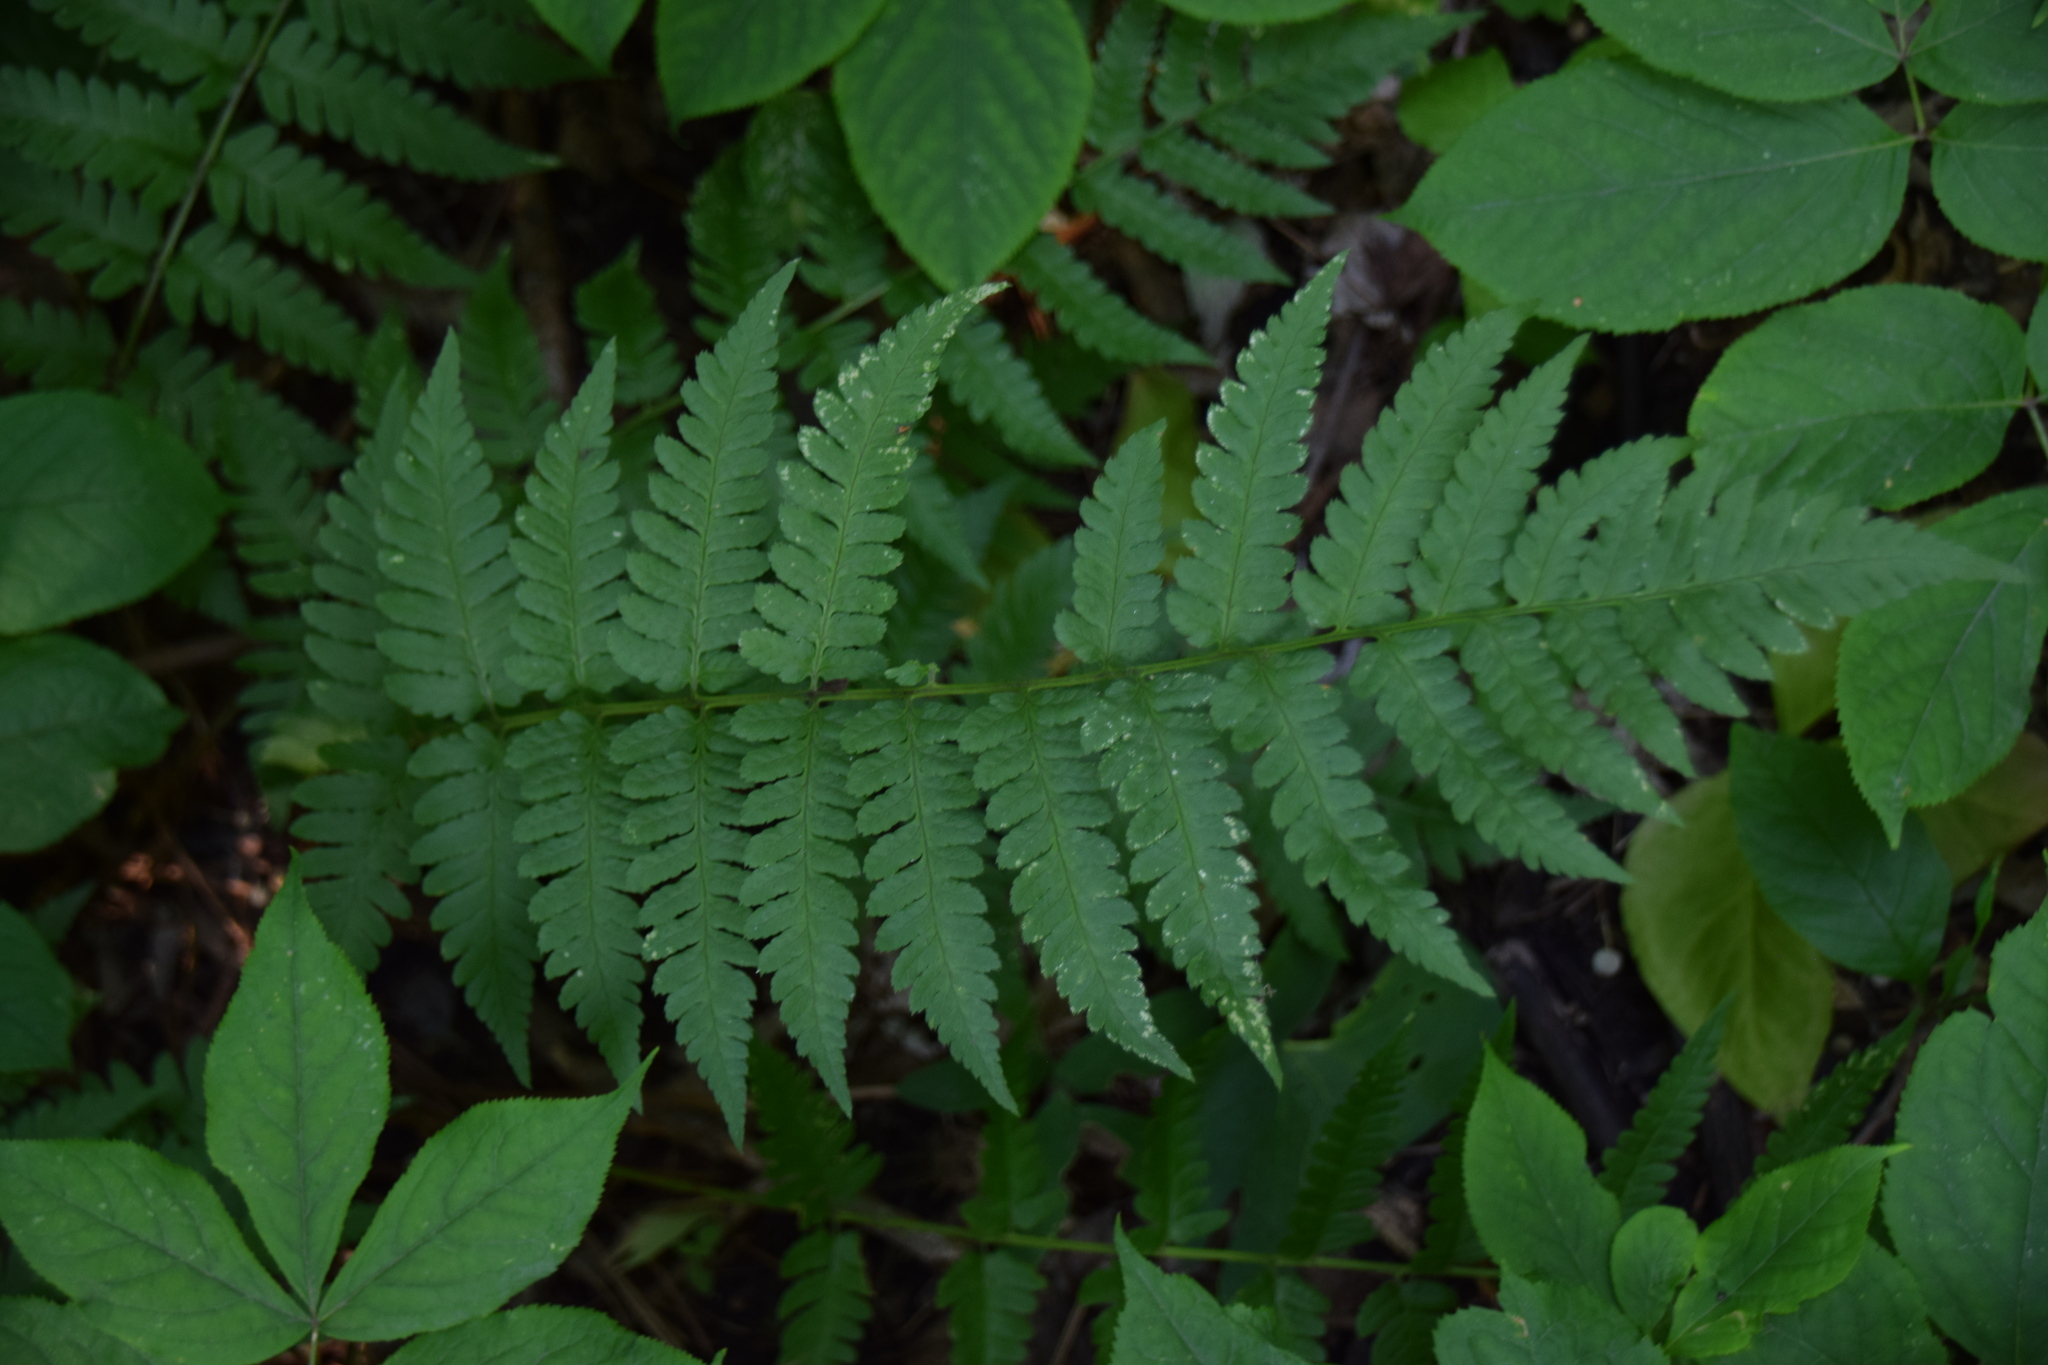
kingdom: Plantae
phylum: Tracheophyta
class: Polypodiopsida
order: Polypodiales
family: Dryopteridaceae
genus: Dryopteris
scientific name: Dryopteris cristata
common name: Crested wood fern
